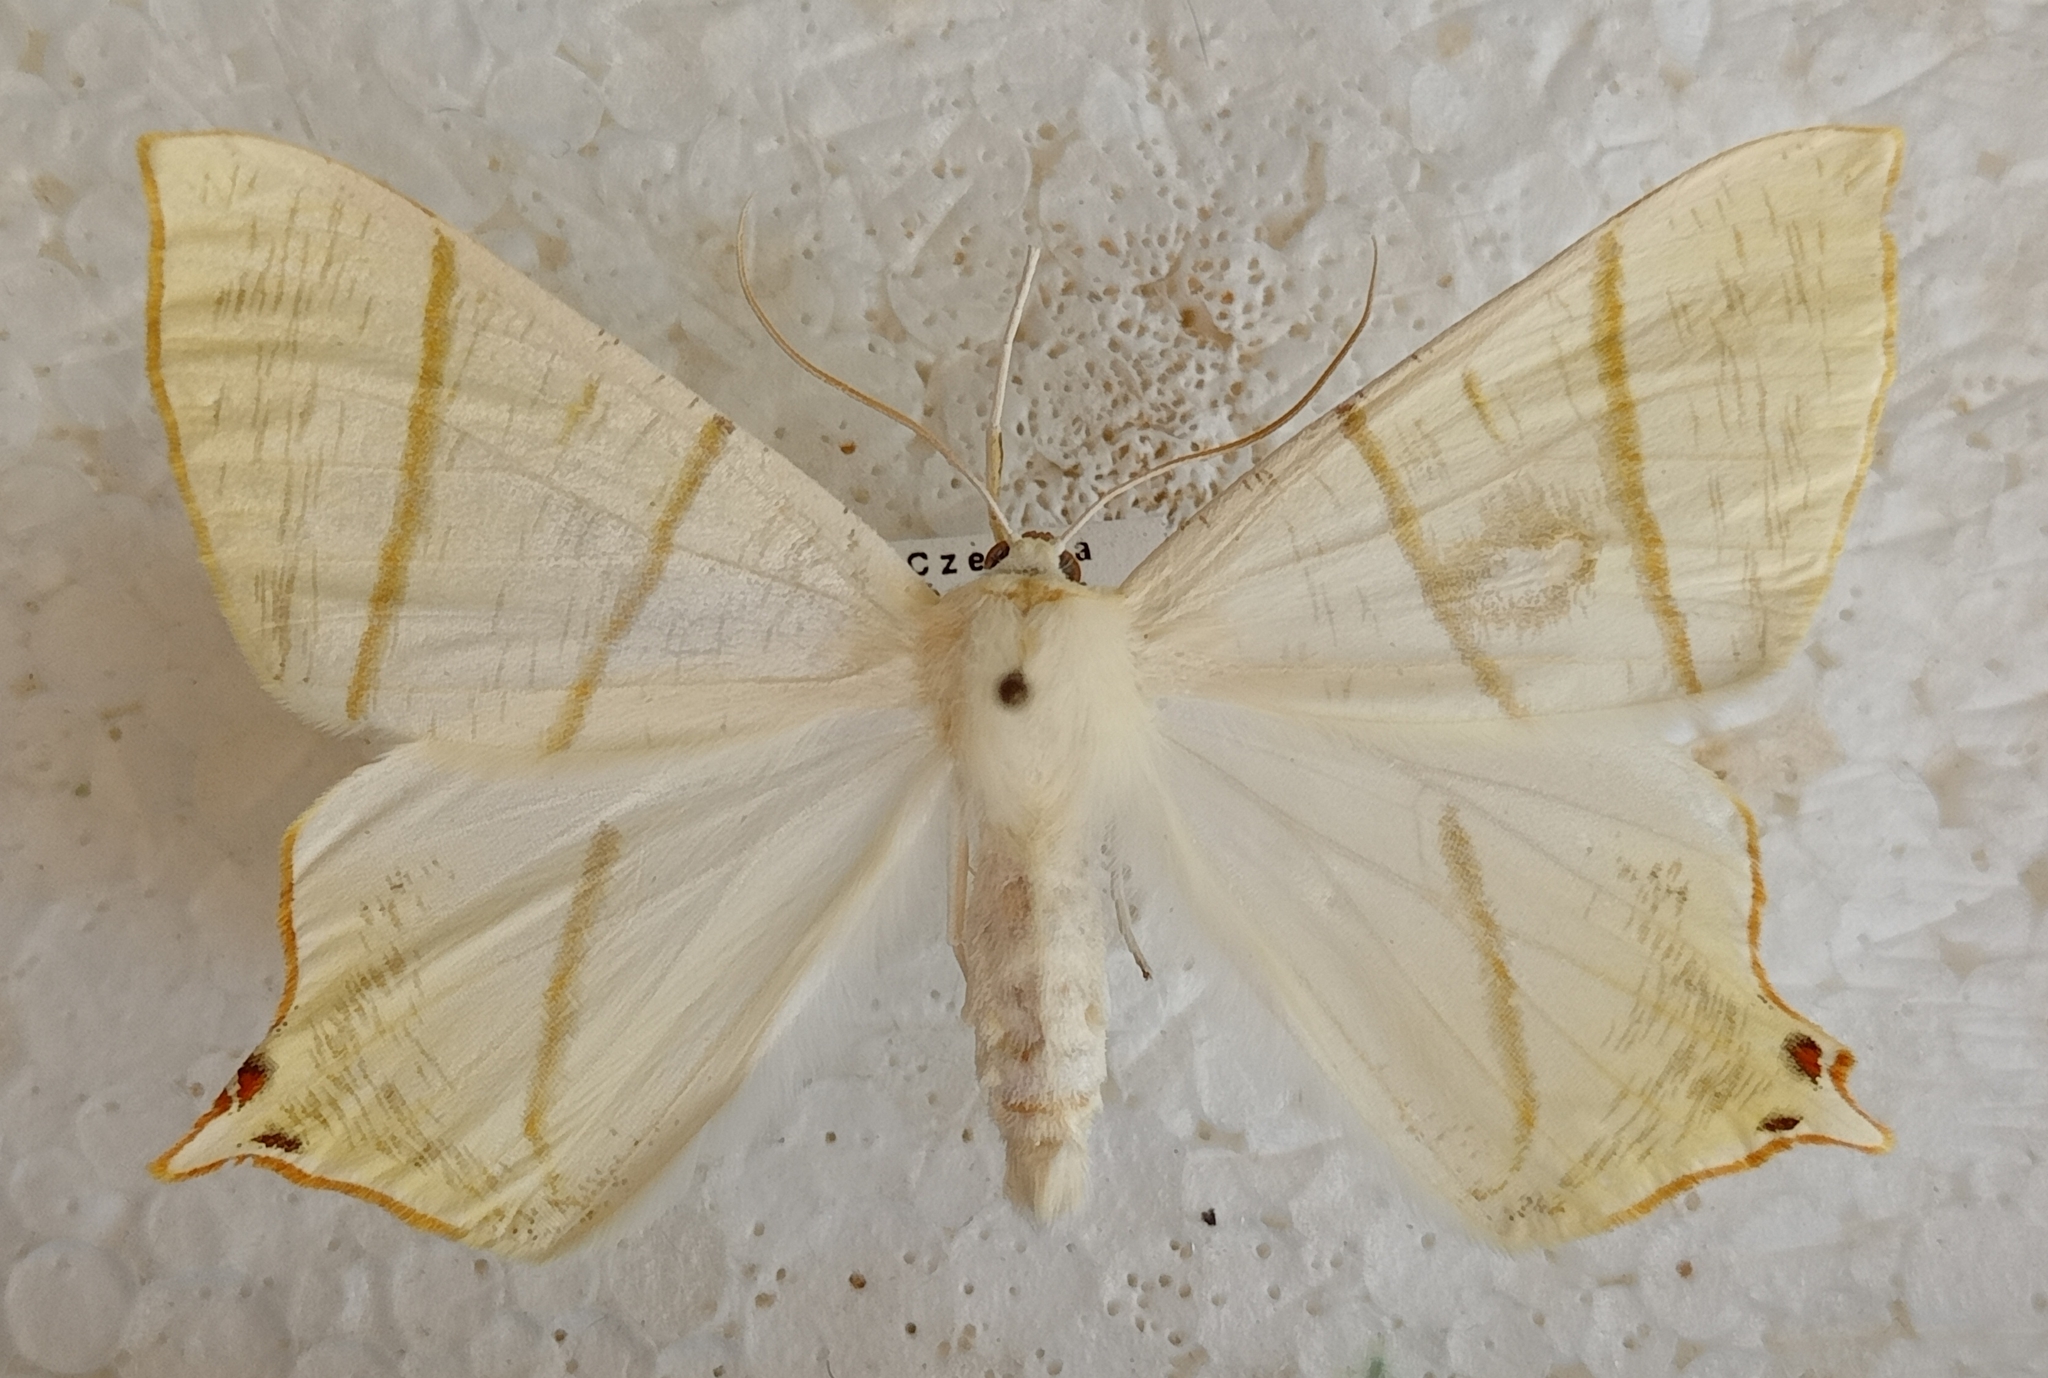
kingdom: Animalia
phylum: Arthropoda
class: Insecta
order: Lepidoptera
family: Geometridae
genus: Ourapteryx
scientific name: Ourapteryx sambucaria
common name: Swallow-tailed moth
